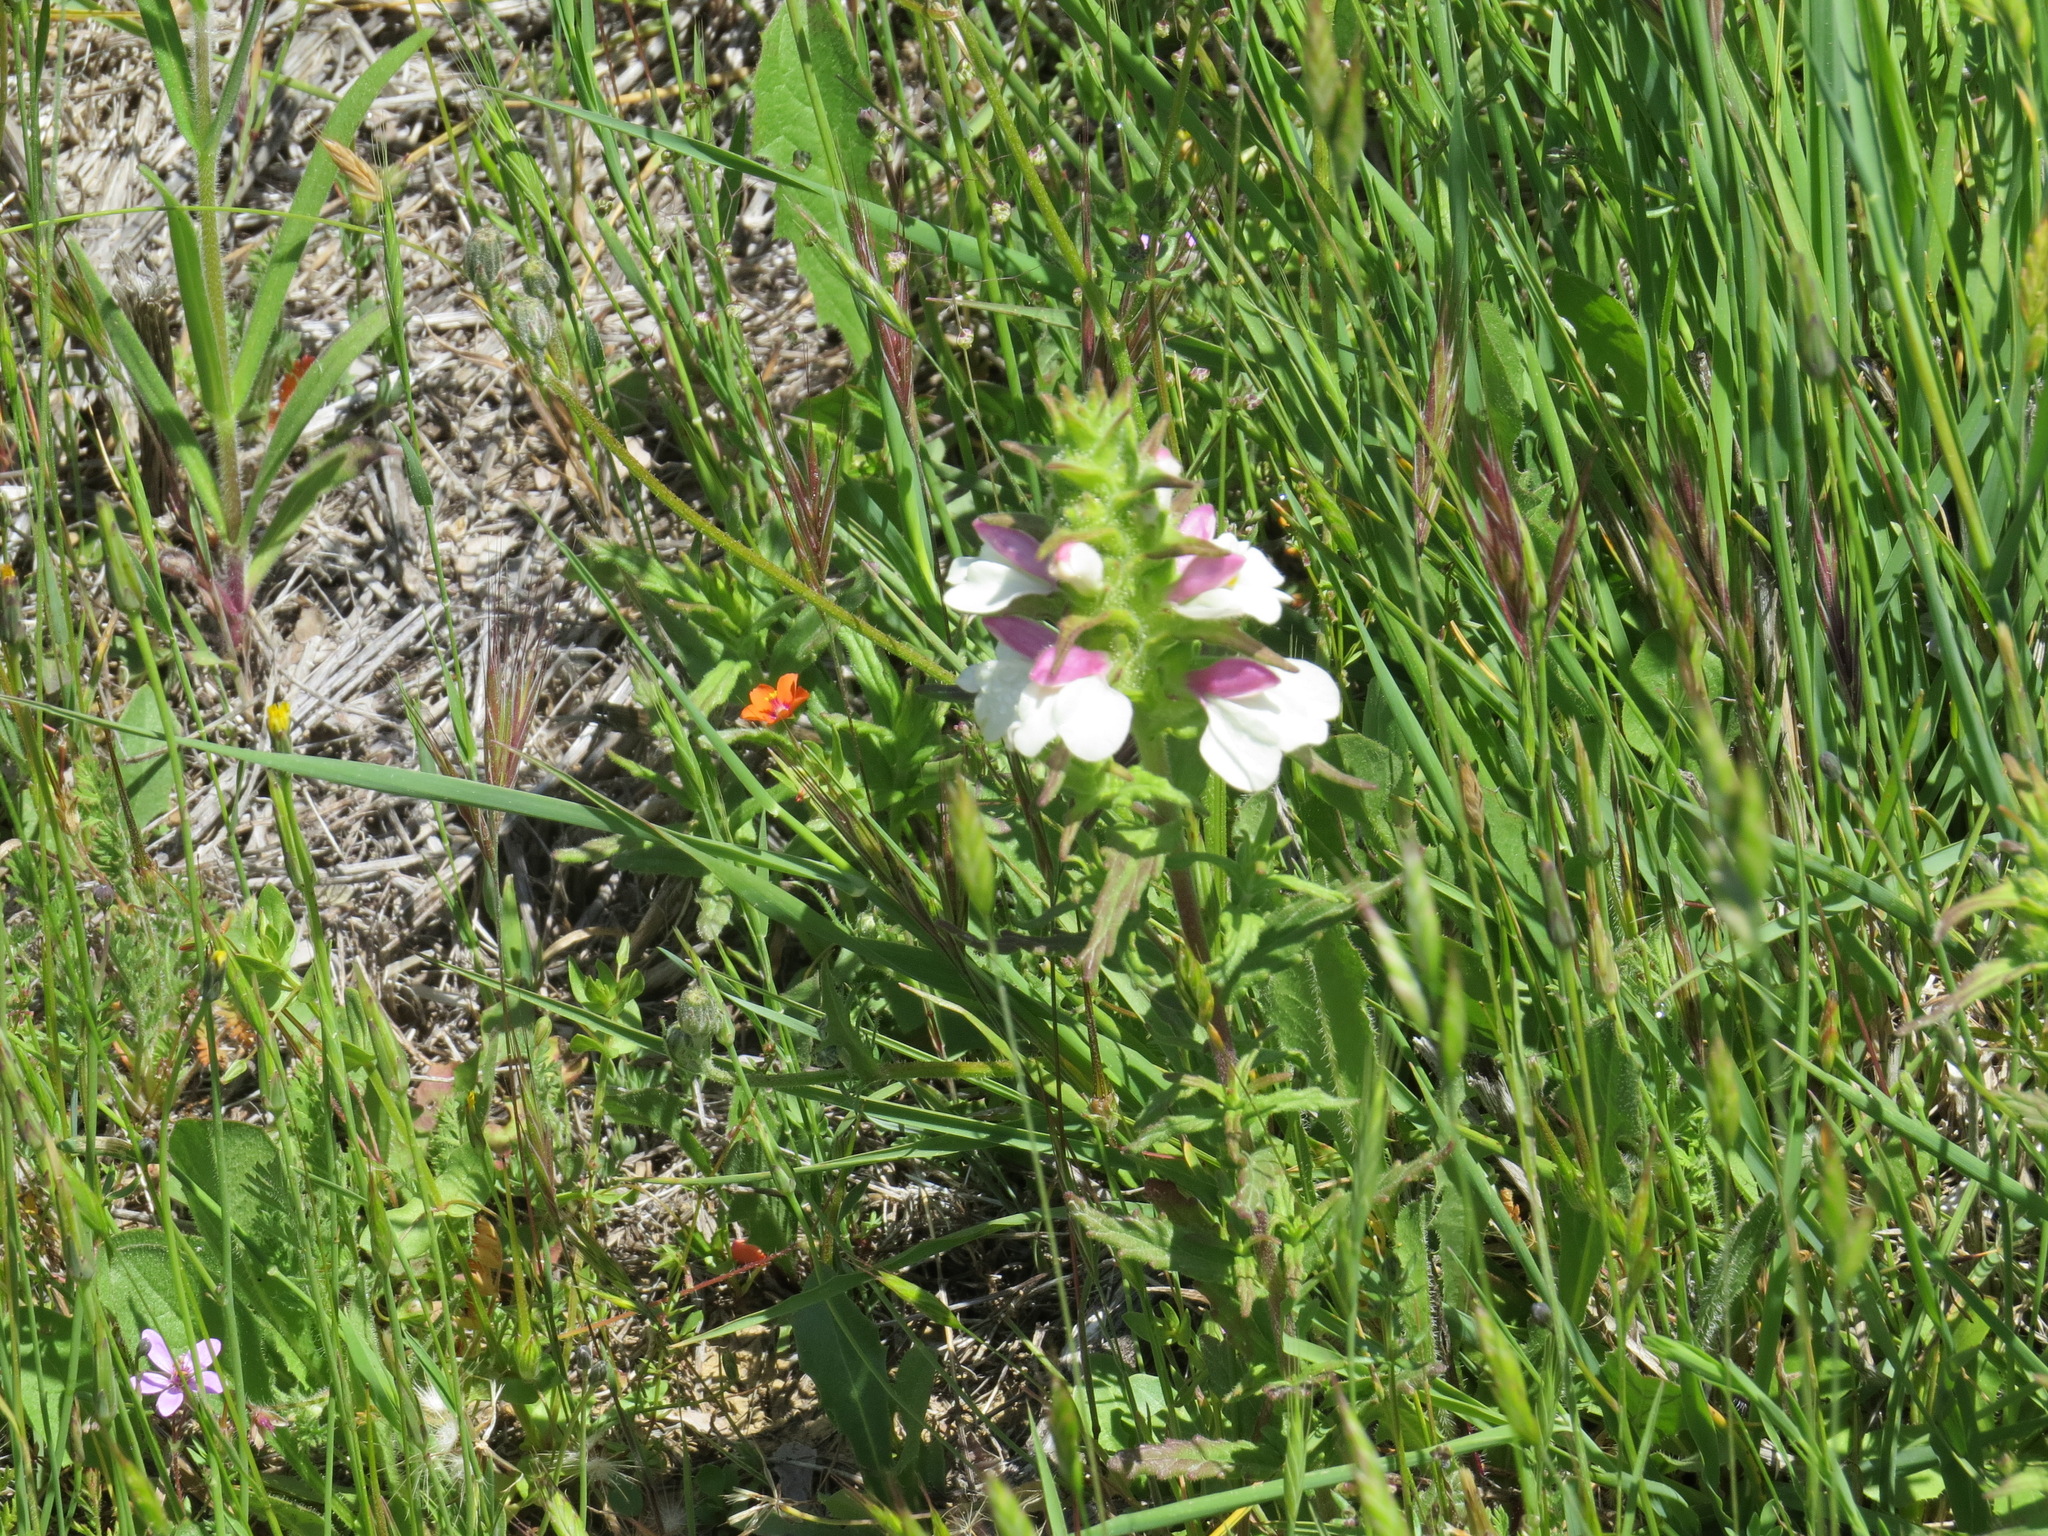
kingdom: Plantae
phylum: Tracheophyta
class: Magnoliopsida
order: Lamiales
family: Orobanchaceae
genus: Bellardia
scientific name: Bellardia trixago
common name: Mediterranean lineseed
